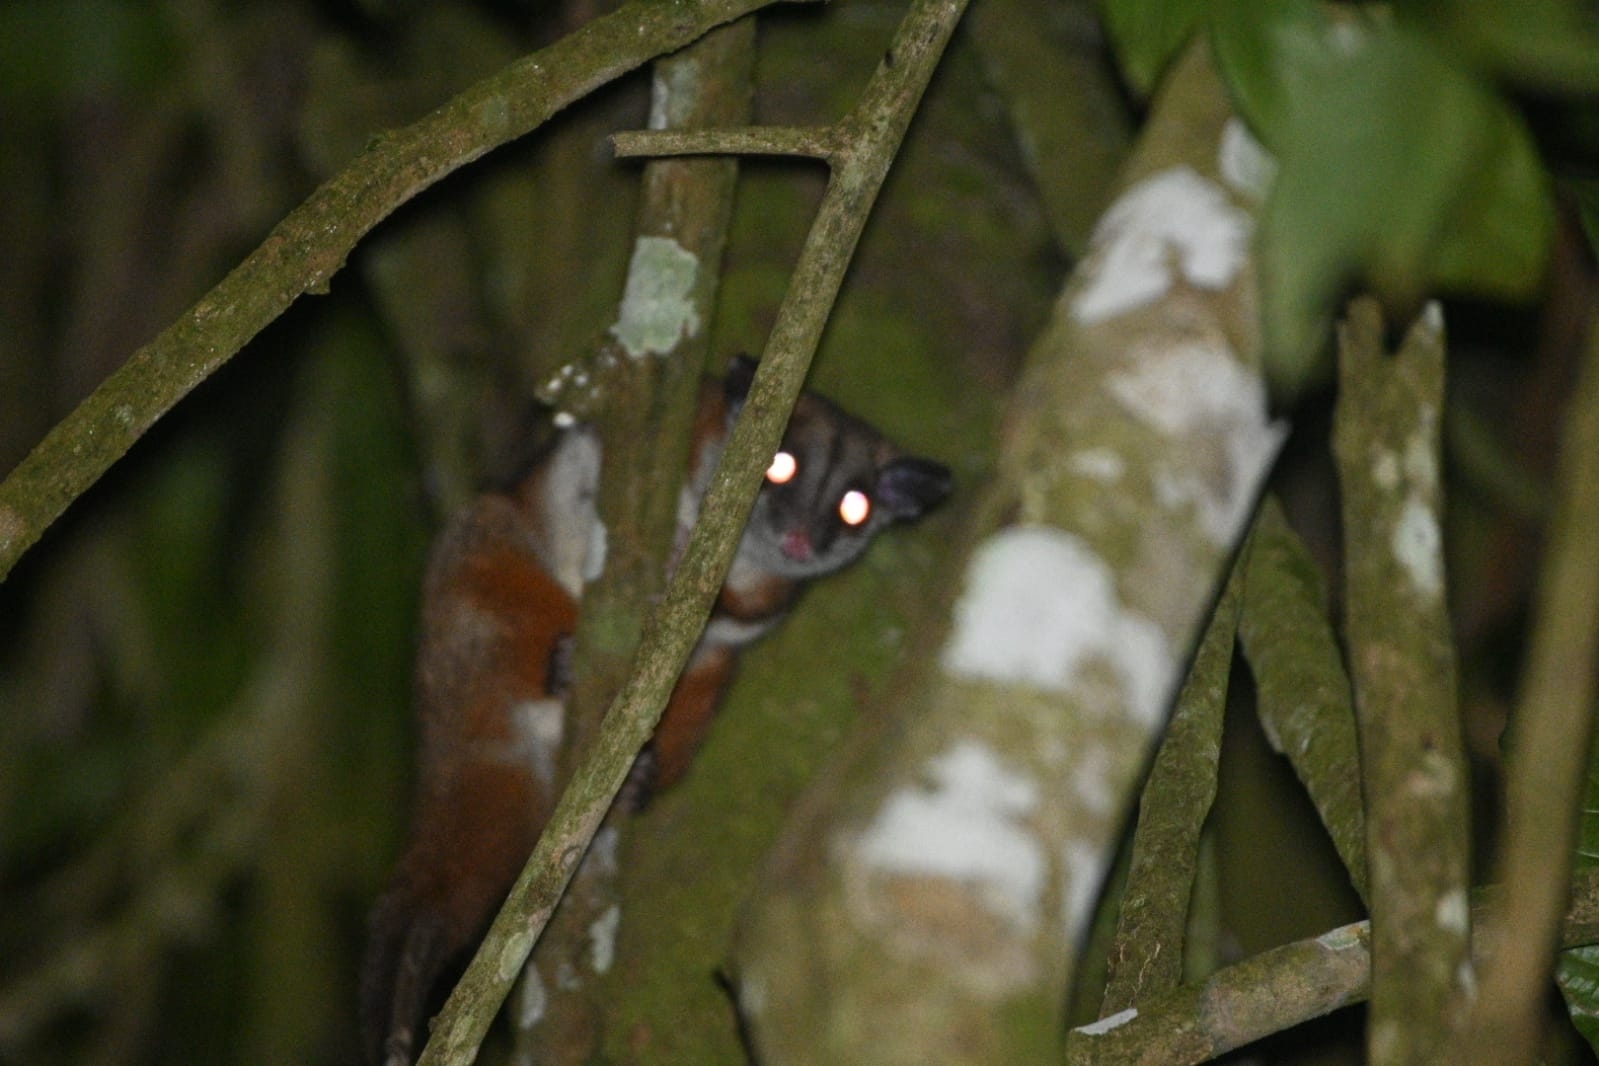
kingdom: Animalia
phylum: Chordata
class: Mammalia
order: Didelphimorphia
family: Didelphidae
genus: Caluromys
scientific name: Caluromys lanatus
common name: Brown-eared woolly opossum
